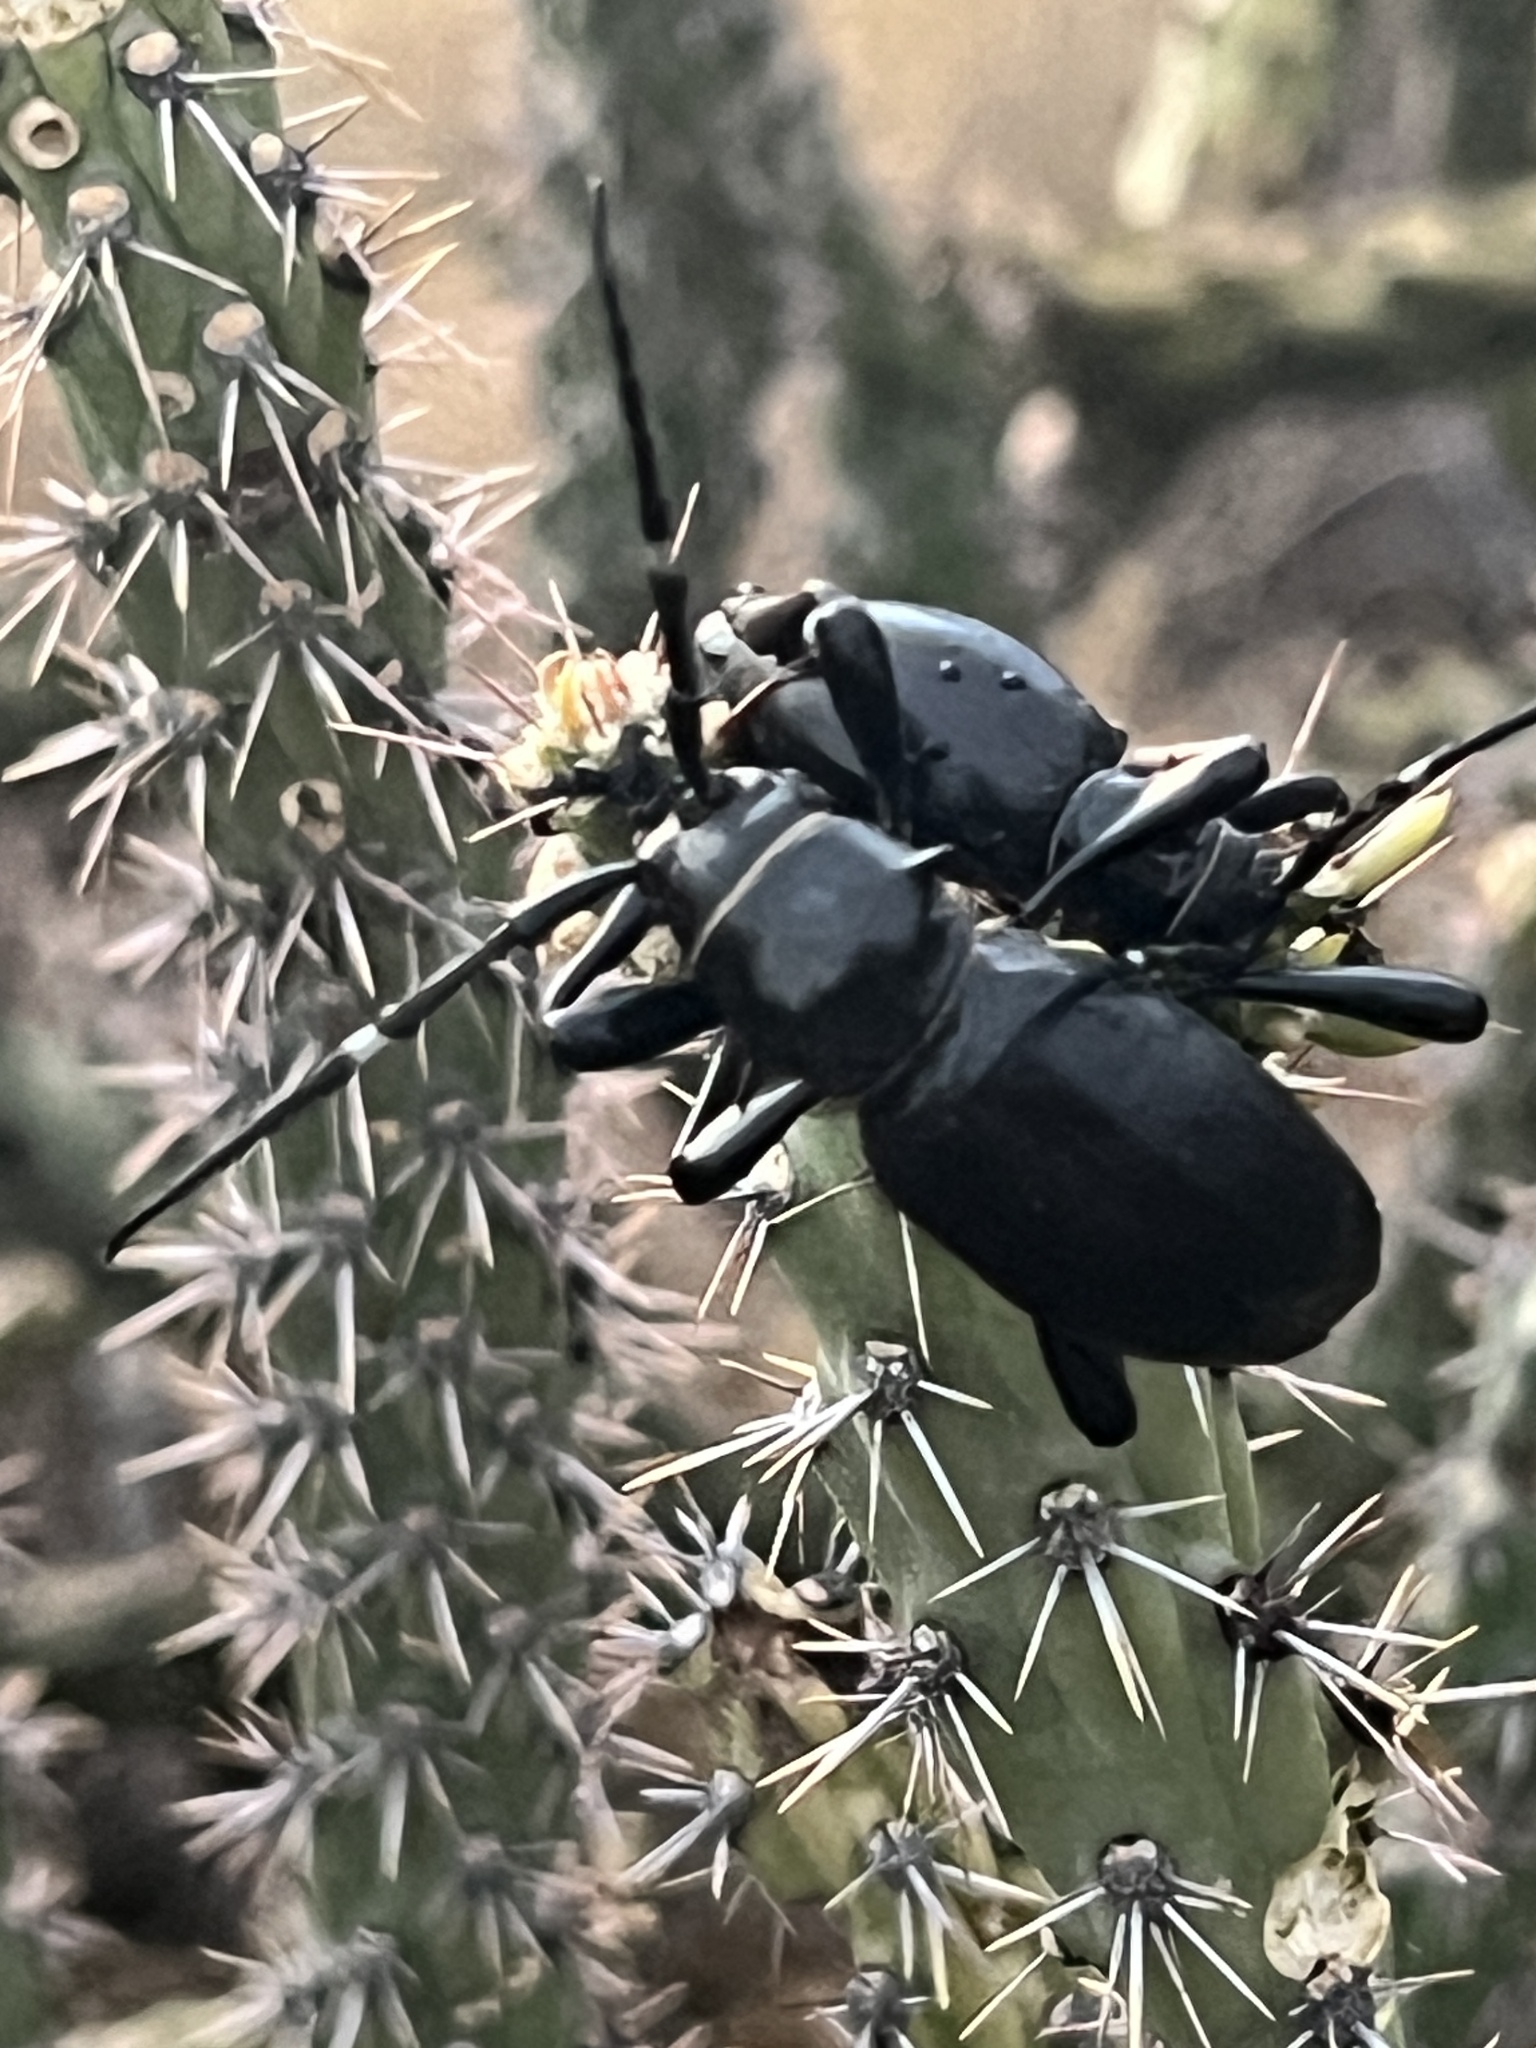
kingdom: Animalia
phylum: Arthropoda
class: Insecta
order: Coleoptera
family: Cerambycidae
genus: Moneilema
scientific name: Moneilema gigas
